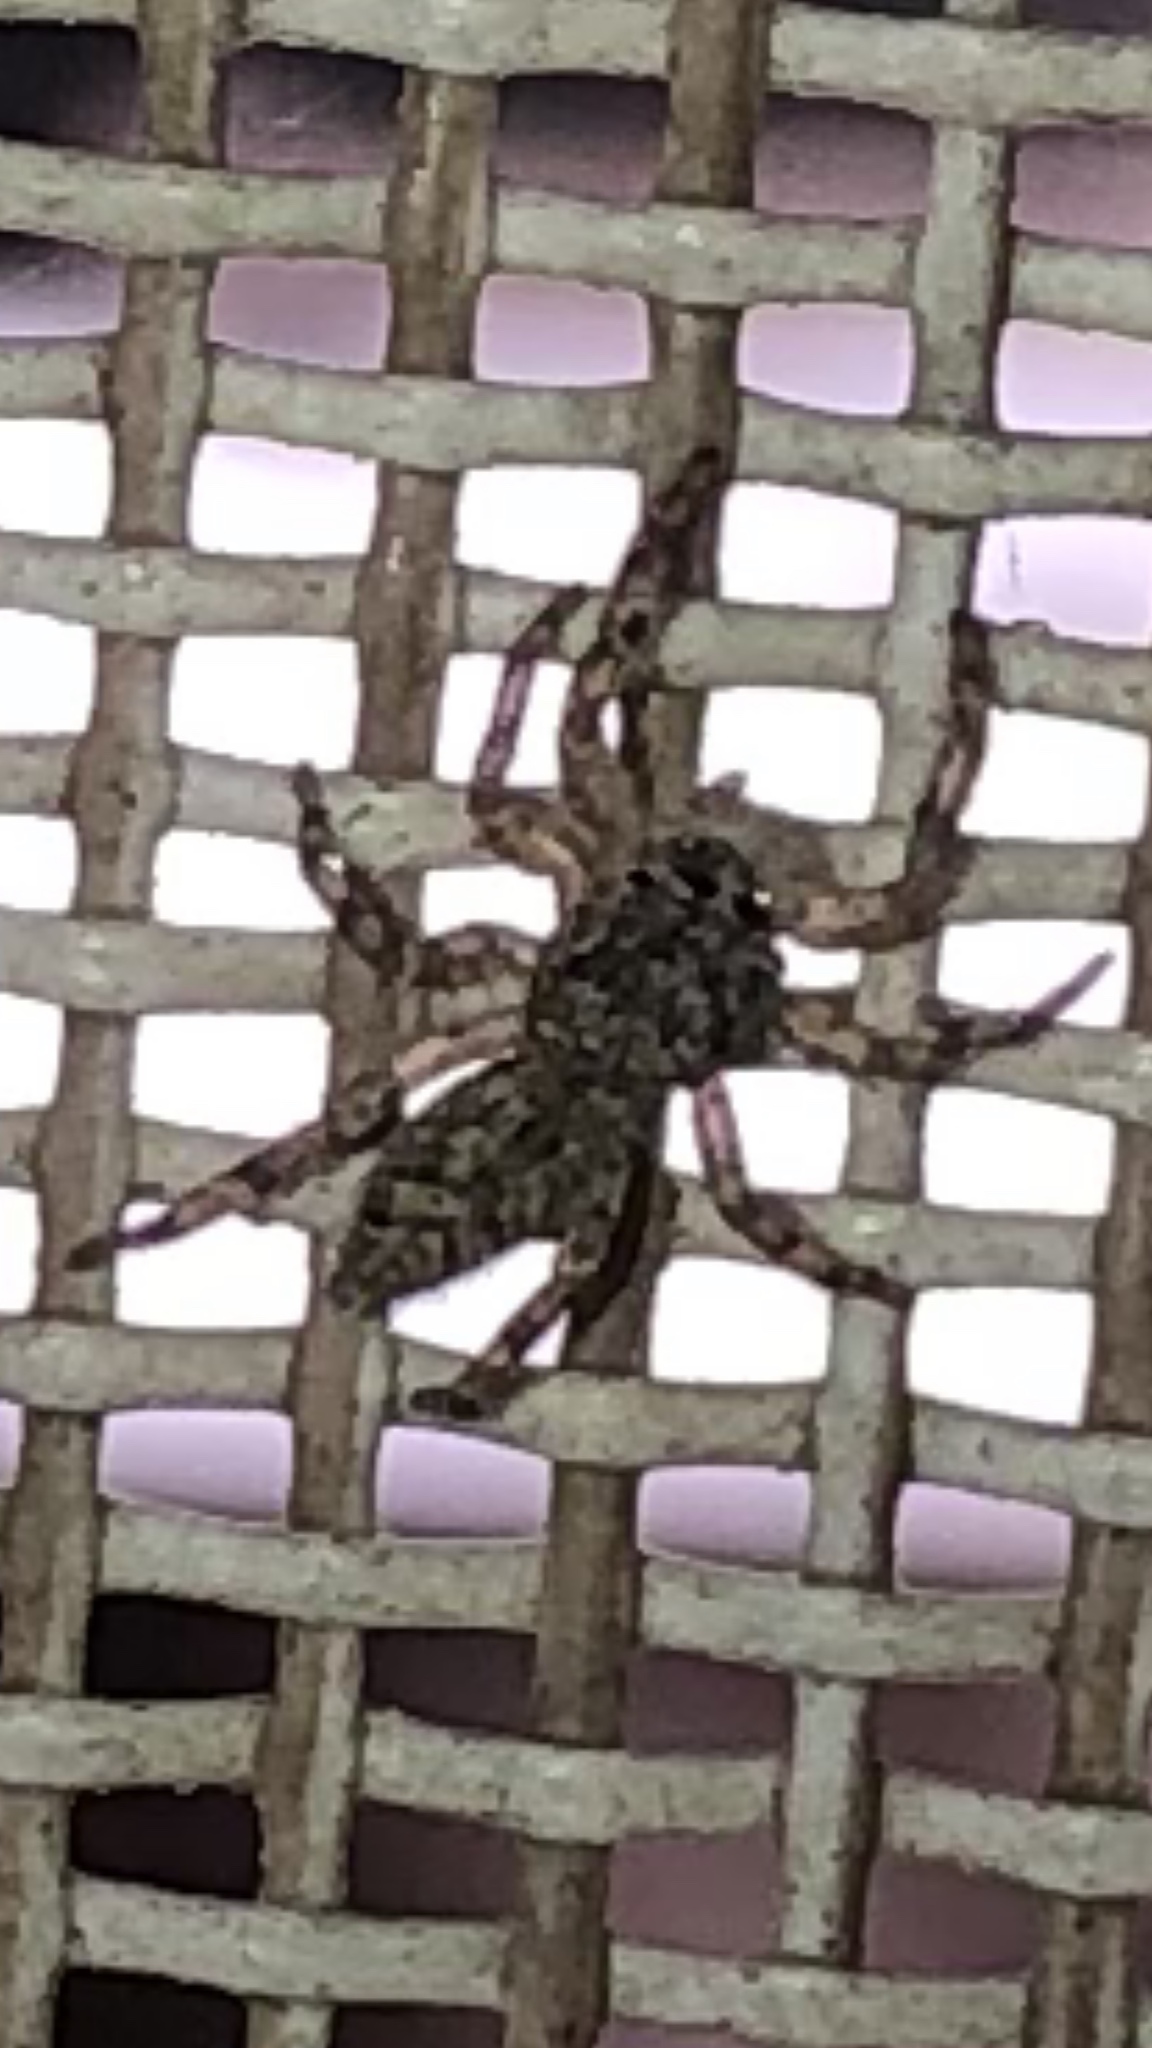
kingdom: Animalia
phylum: Arthropoda
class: Arachnida
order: Araneae
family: Salticidae
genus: Platycryptus
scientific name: Platycryptus undatus
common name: Tan jumping spider
